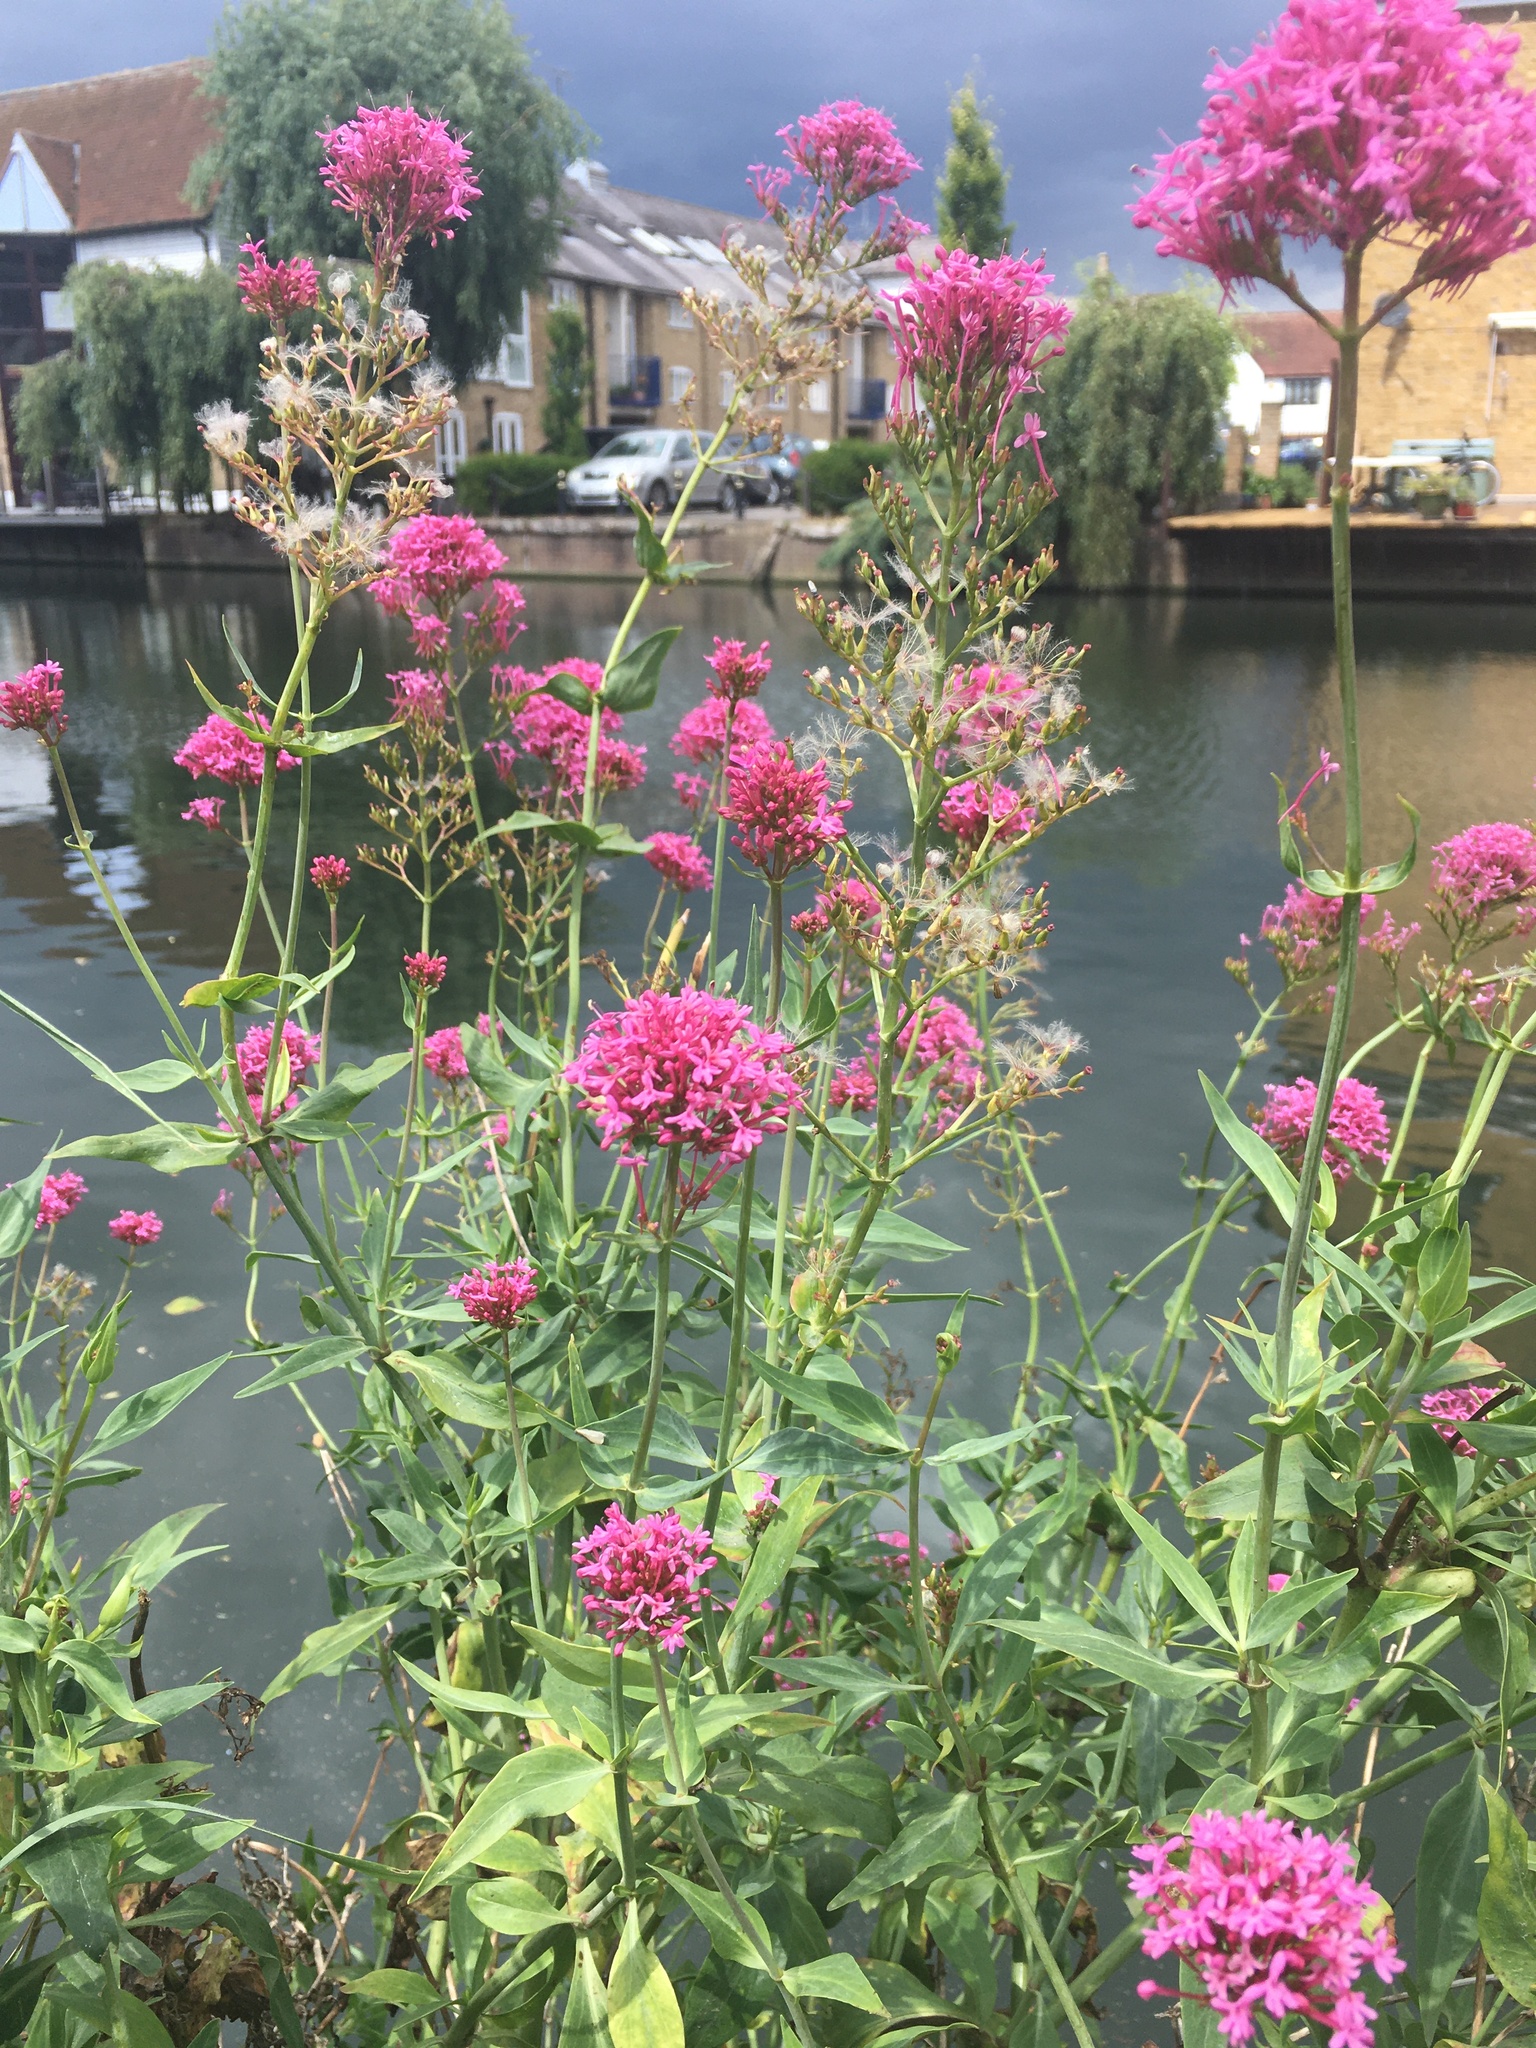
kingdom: Plantae
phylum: Tracheophyta
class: Magnoliopsida
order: Dipsacales
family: Caprifoliaceae
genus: Centranthus
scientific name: Centranthus ruber
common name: Red valerian
